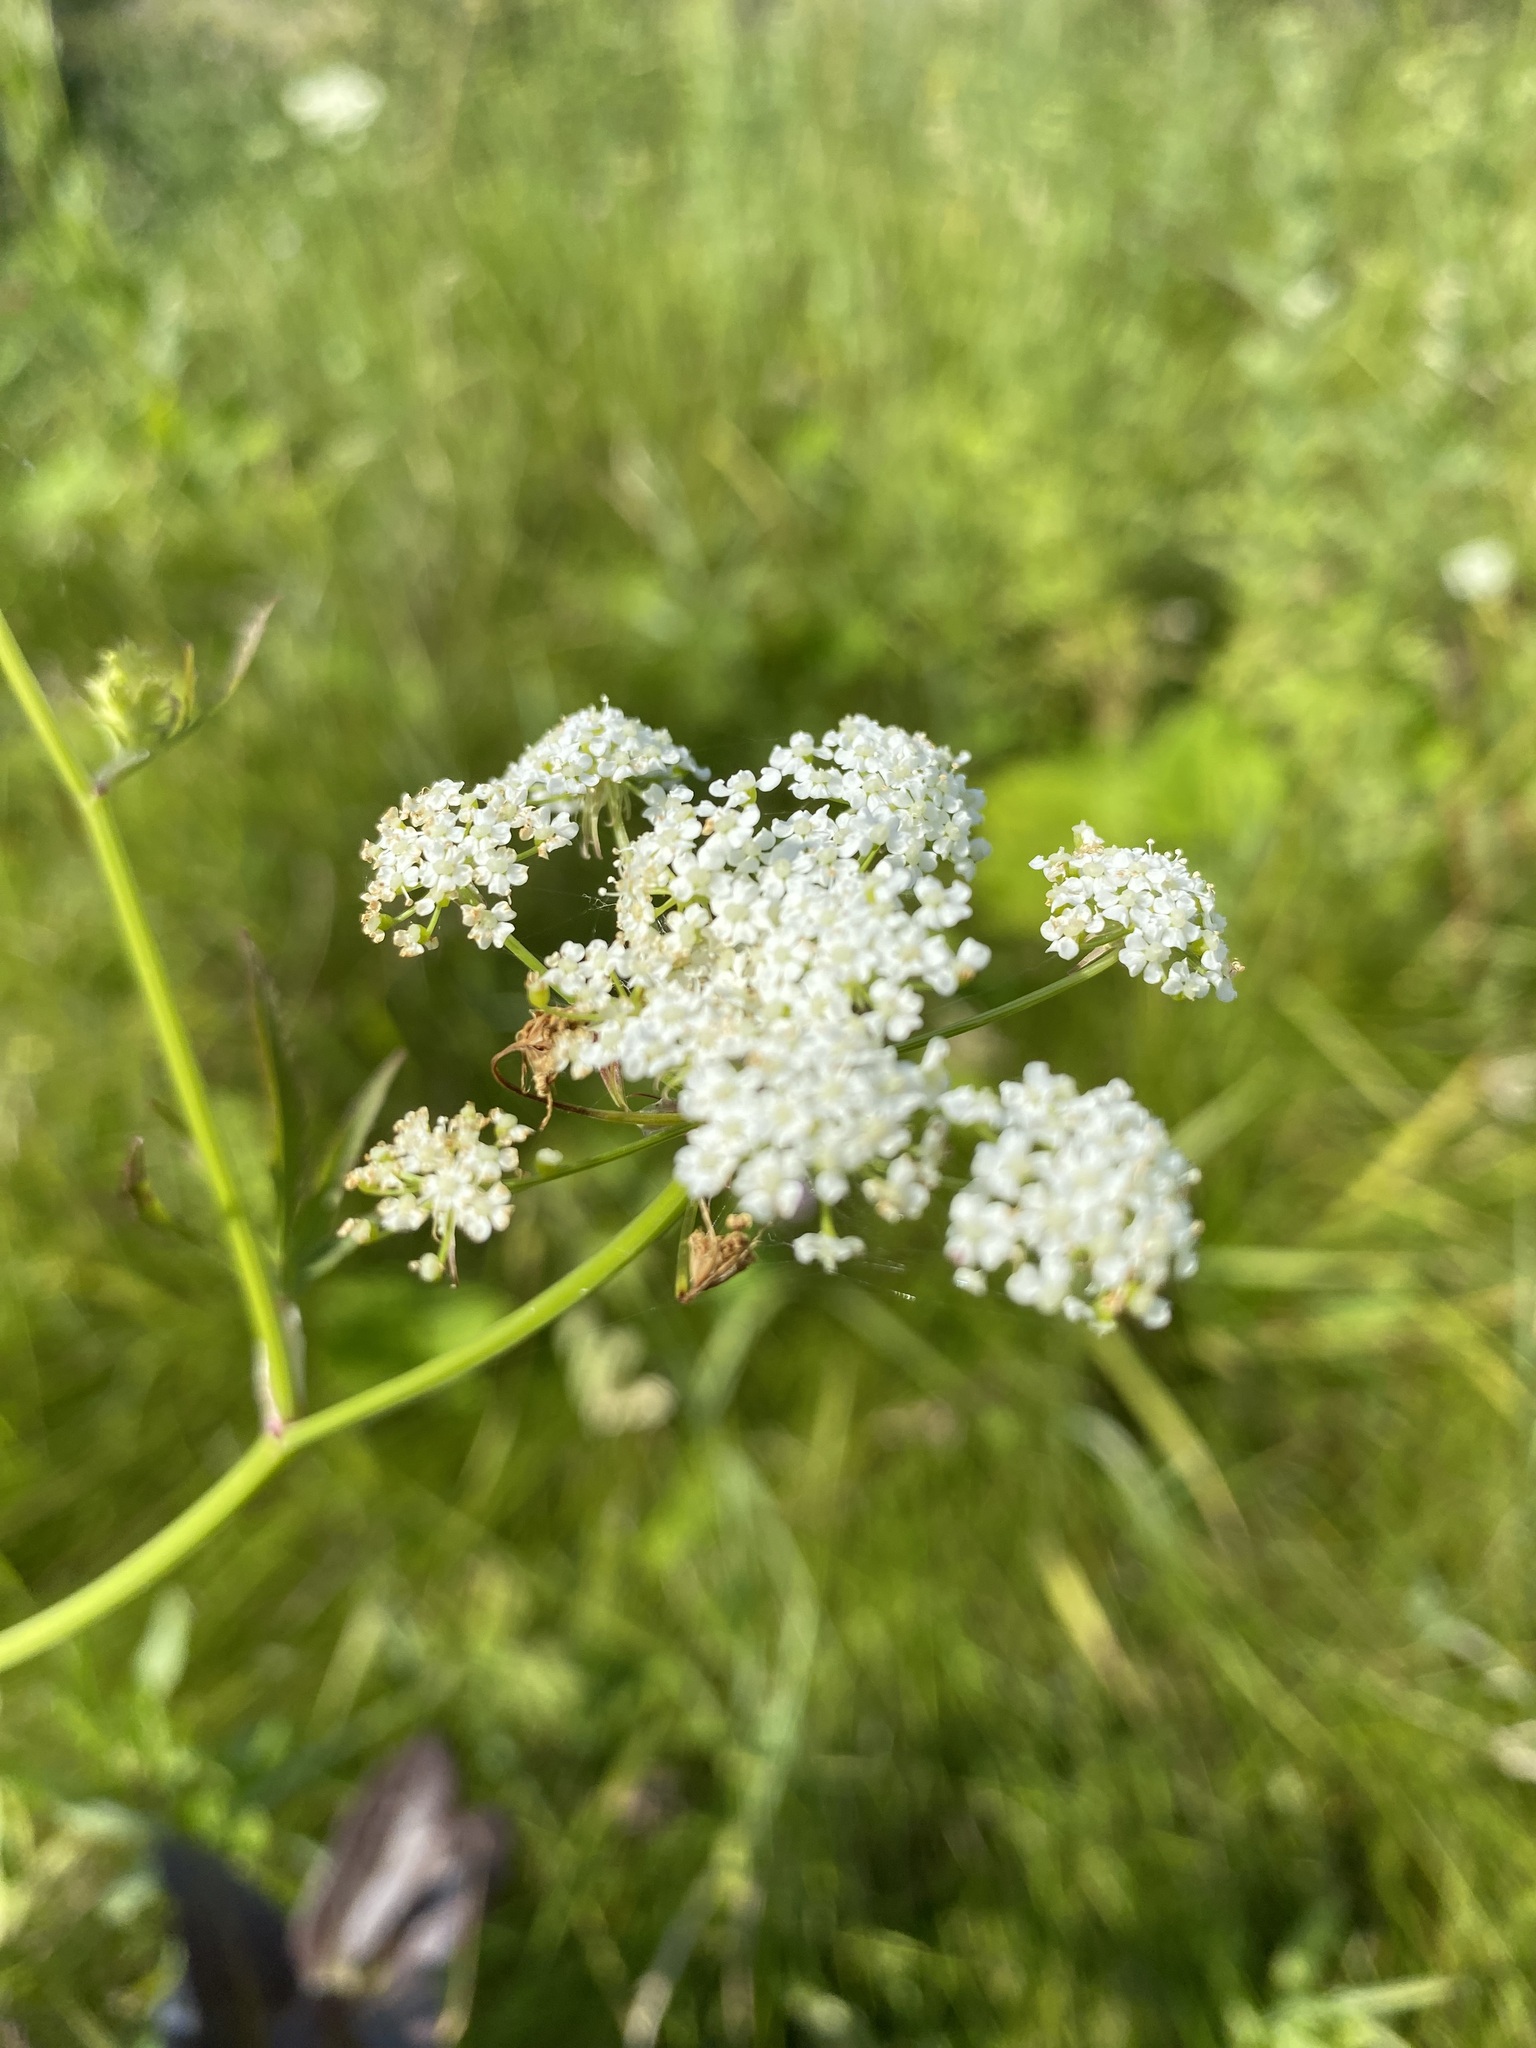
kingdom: Plantae
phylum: Tracheophyta
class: Magnoliopsida
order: Apiales
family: Apiaceae
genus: Pimpinella
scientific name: Pimpinella saxifraga
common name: Burnet-saxifrage
